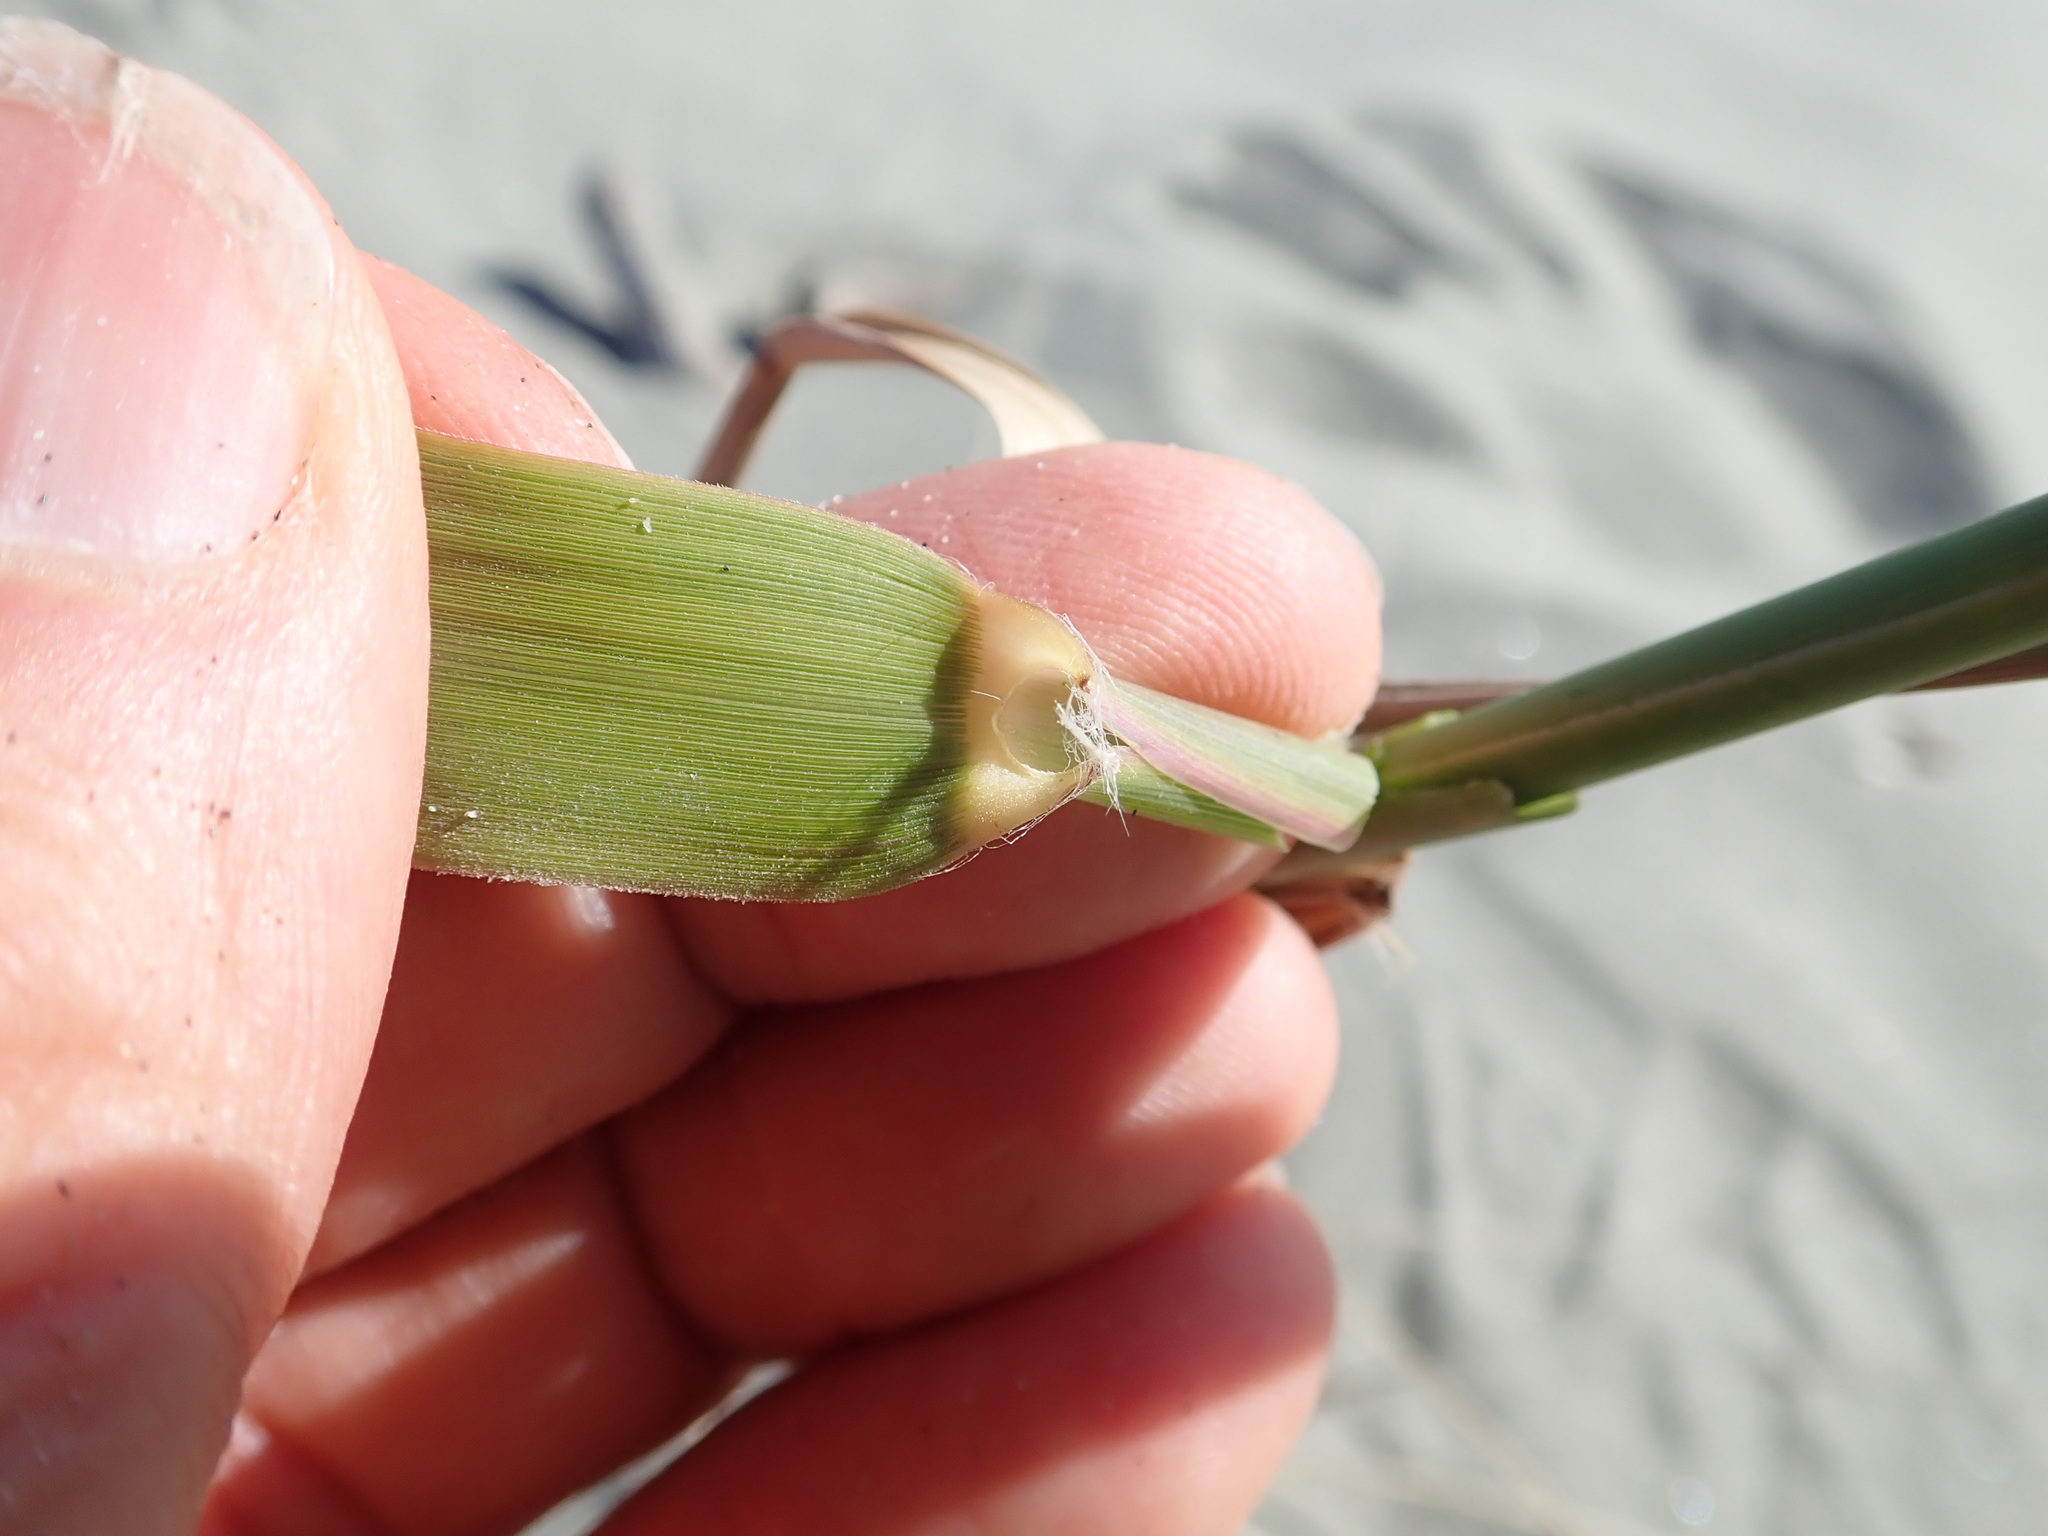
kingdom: Plantae
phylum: Tracheophyta
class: Liliopsida
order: Poales
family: Poaceae
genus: Phragmites
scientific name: Phragmites karka
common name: Tropical reed
